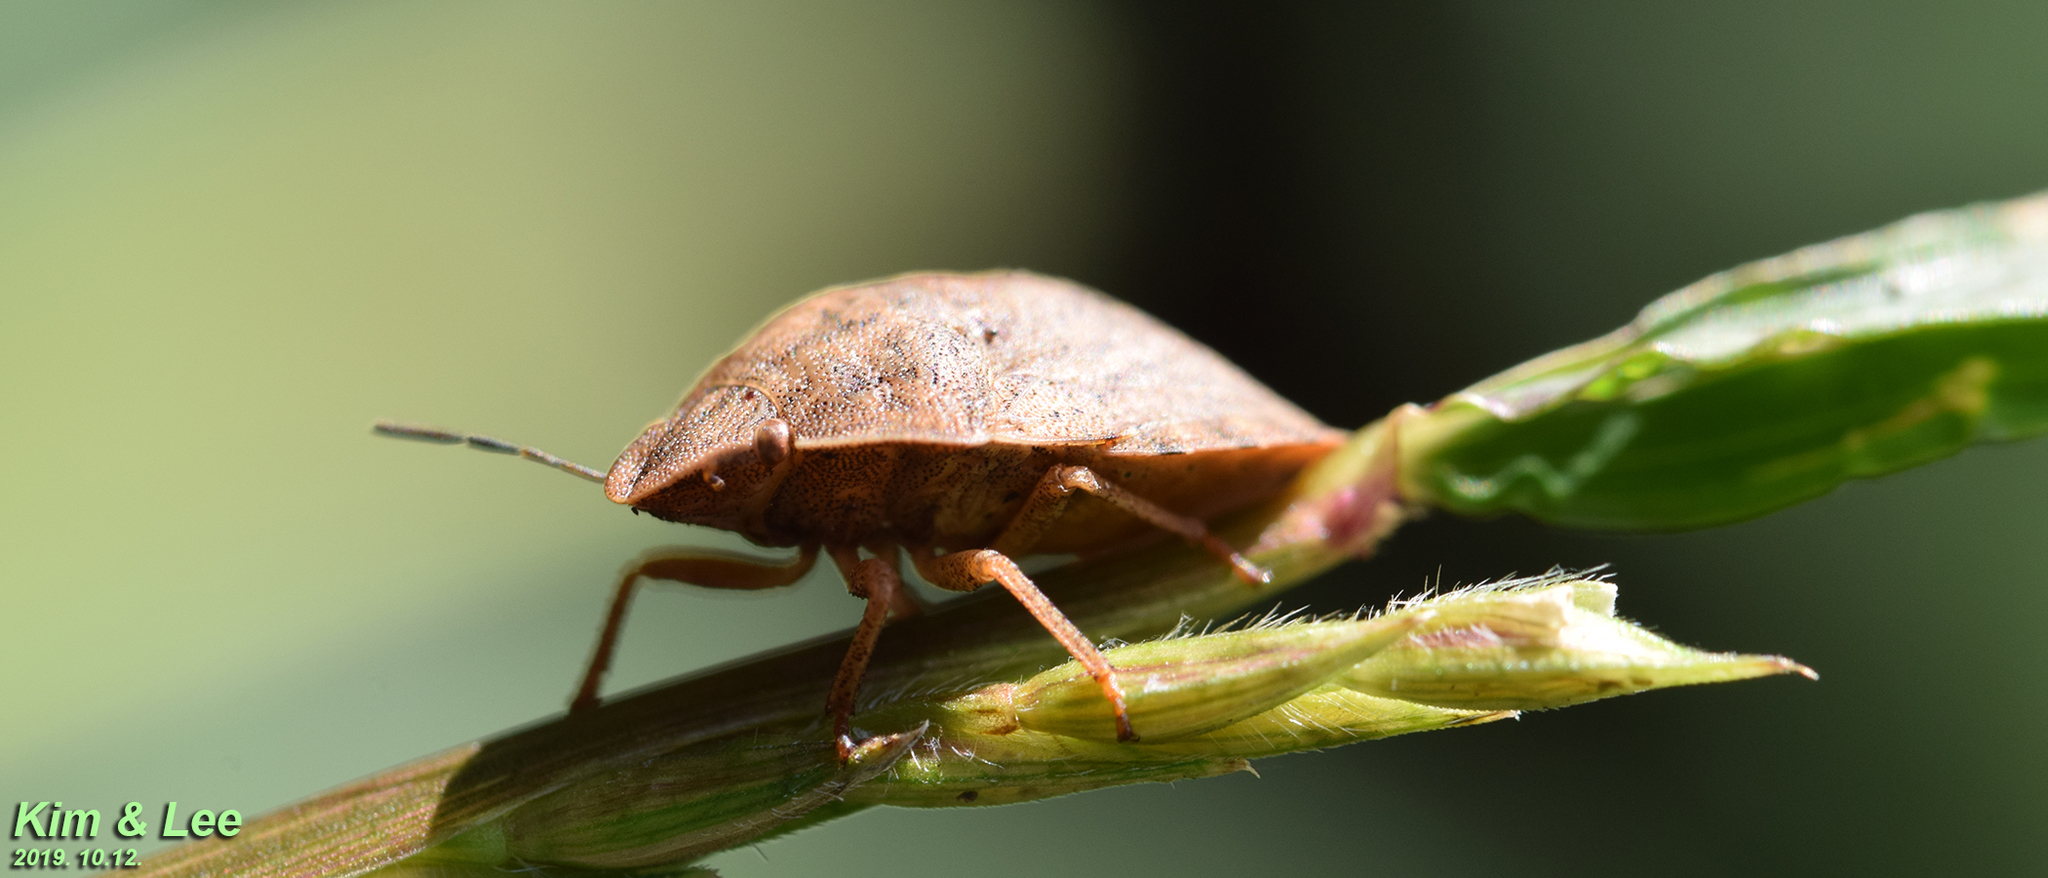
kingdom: Animalia
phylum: Arthropoda
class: Insecta
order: Hemiptera
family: Scutelleridae
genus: Eurygaster
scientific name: Eurygaster testudinaria
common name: Tortoise bug
